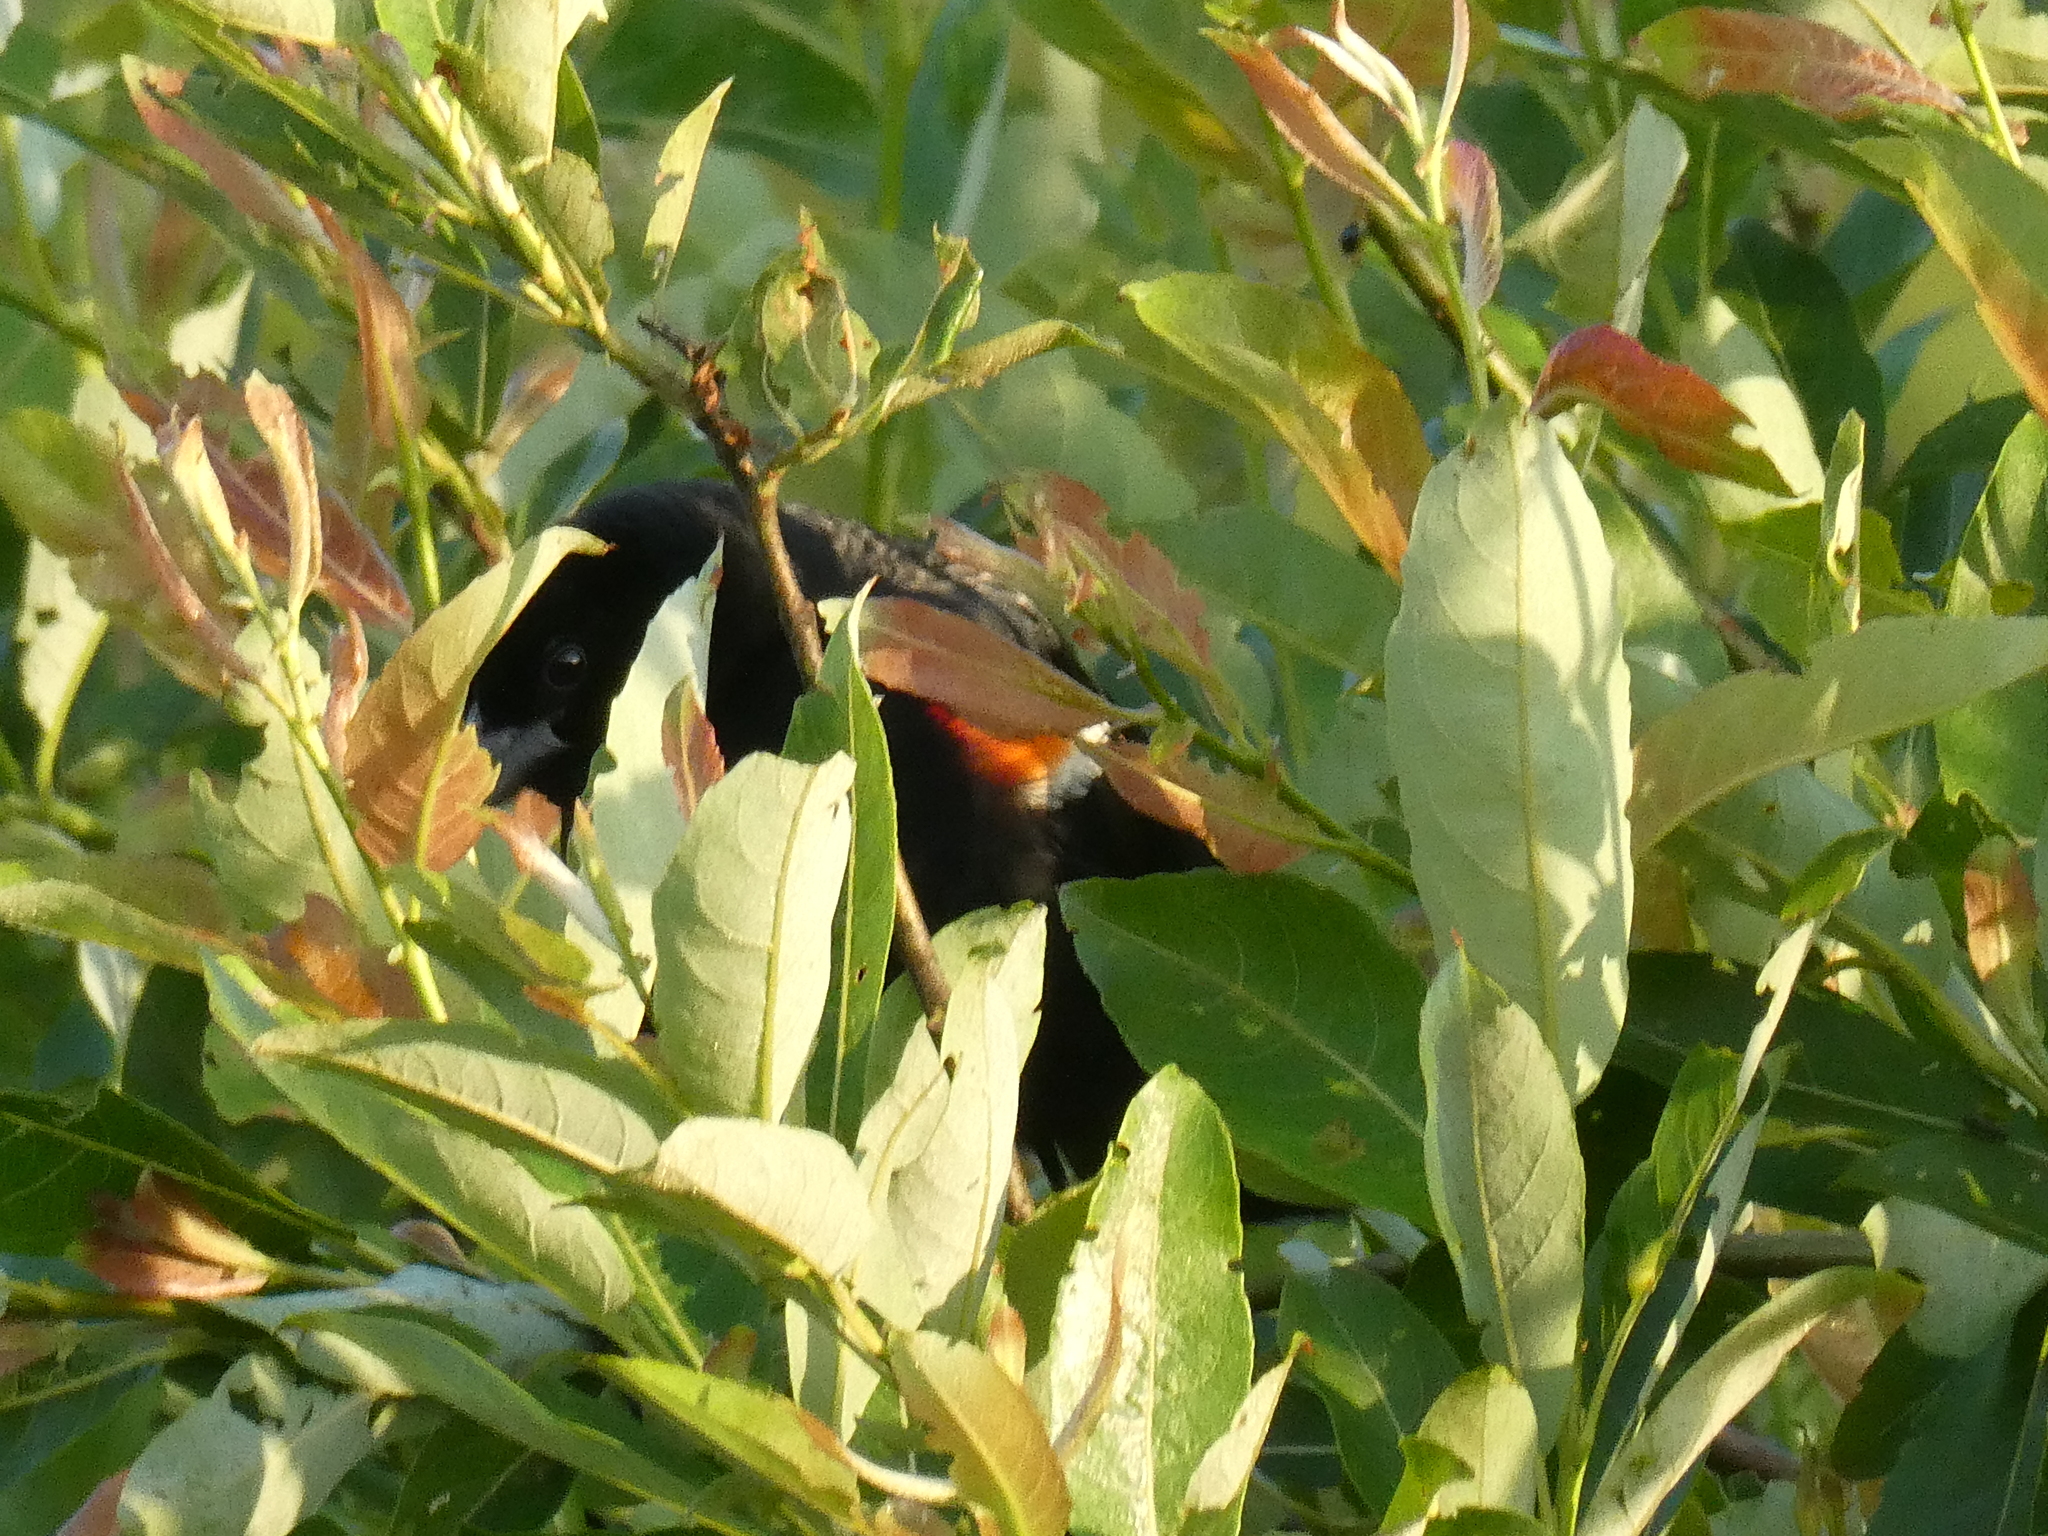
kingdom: Animalia
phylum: Chordata
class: Aves
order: Passeriformes
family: Icteridae
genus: Agelaius
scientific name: Agelaius phoeniceus
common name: Red-winged blackbird
